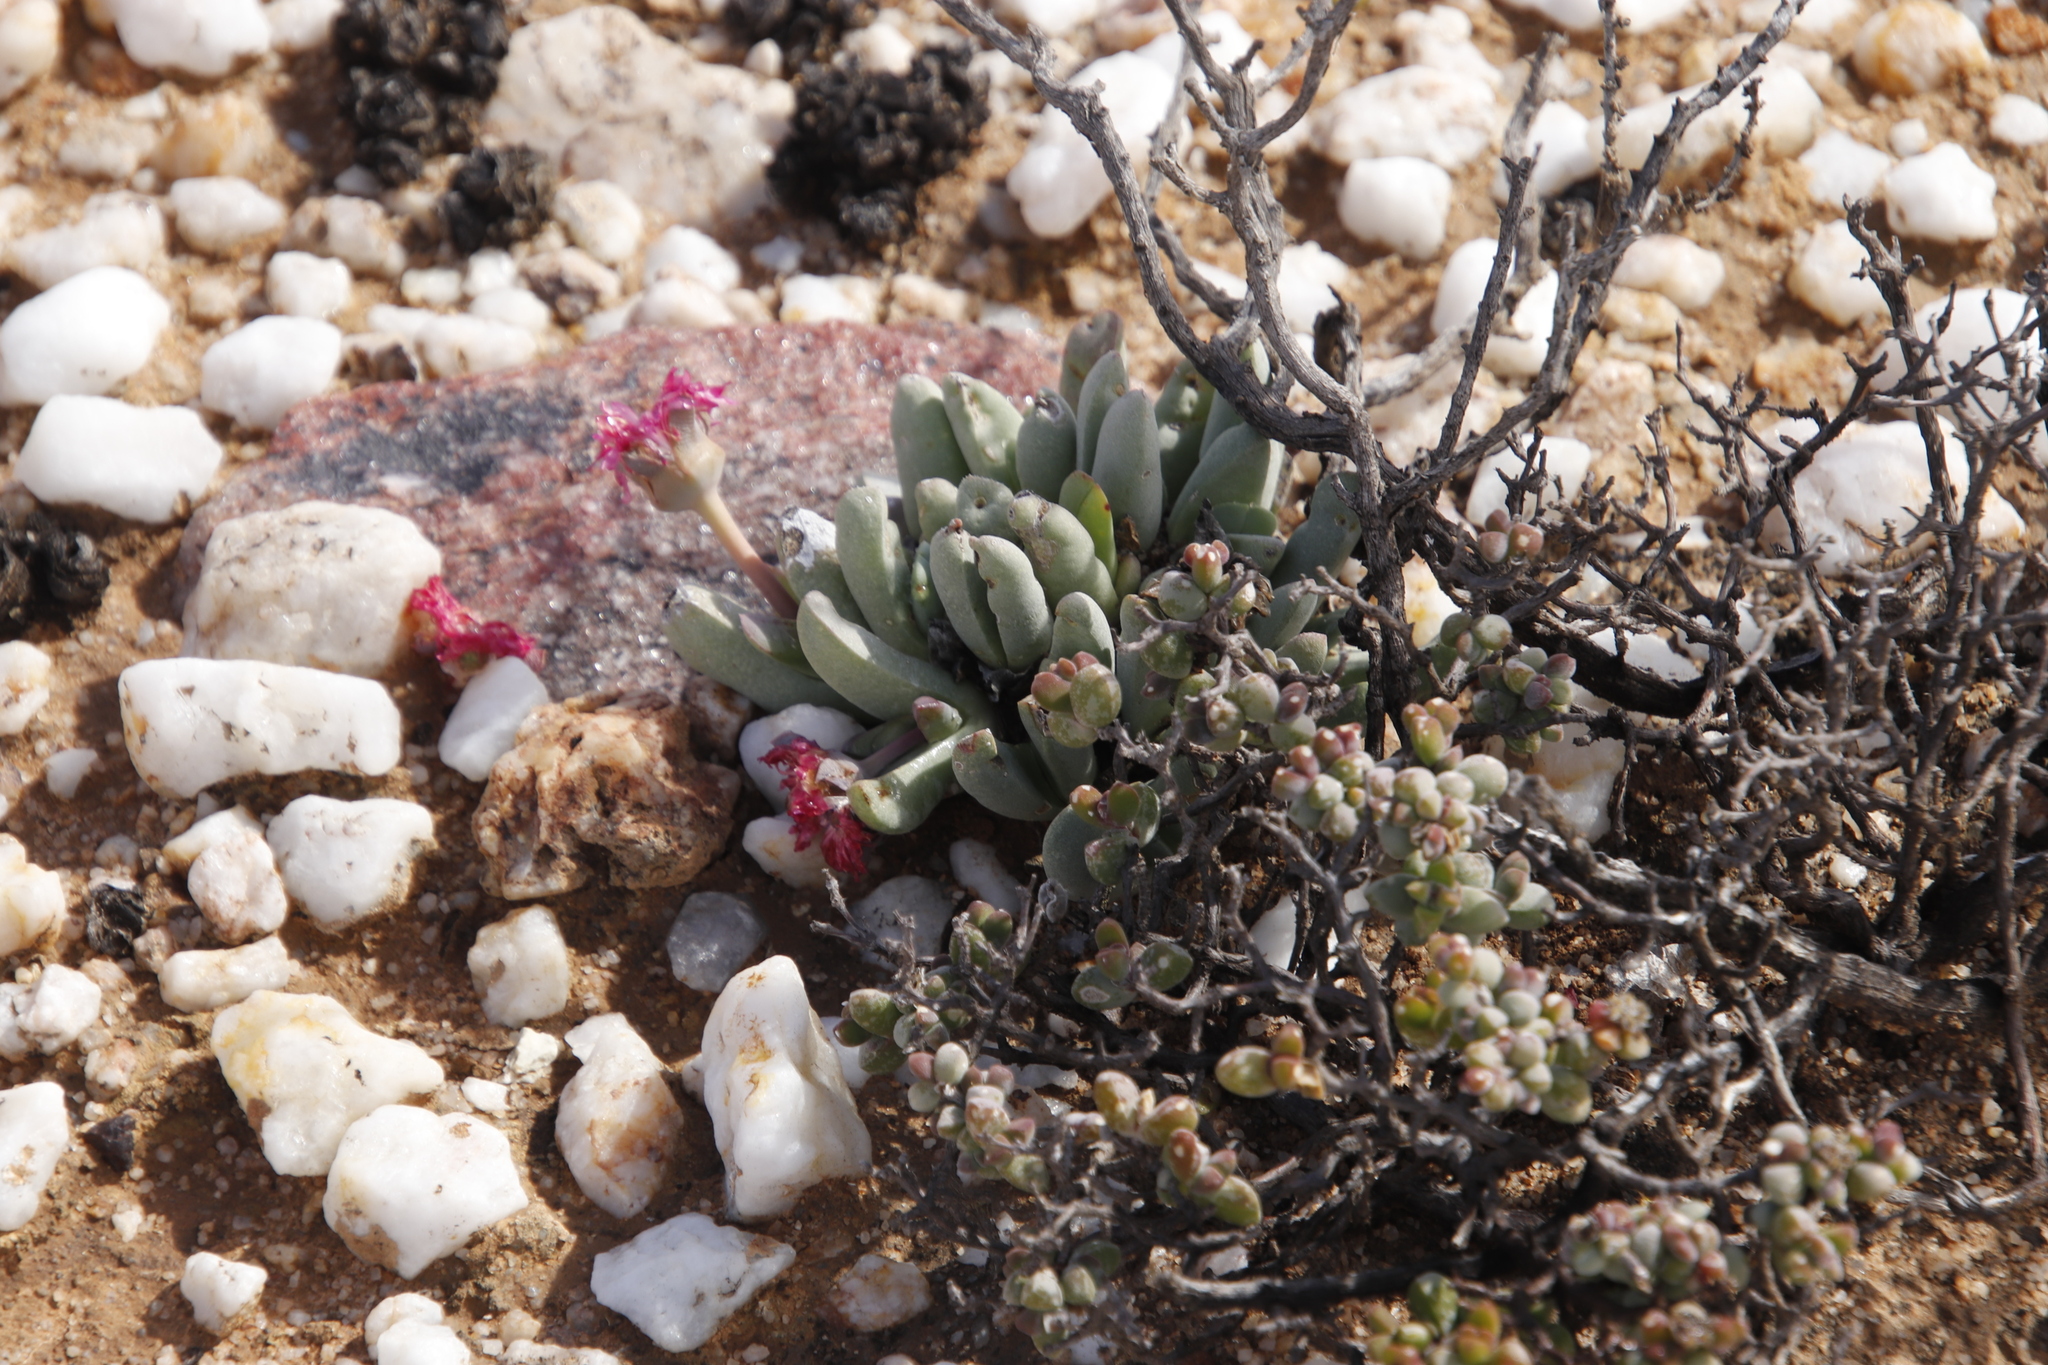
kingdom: Plantae
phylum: Tracheophyta
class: Magnoliopsida
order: Caryophyllales
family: Aizoaceae
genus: Cephalophyllum
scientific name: Cephalophyllum spissum
